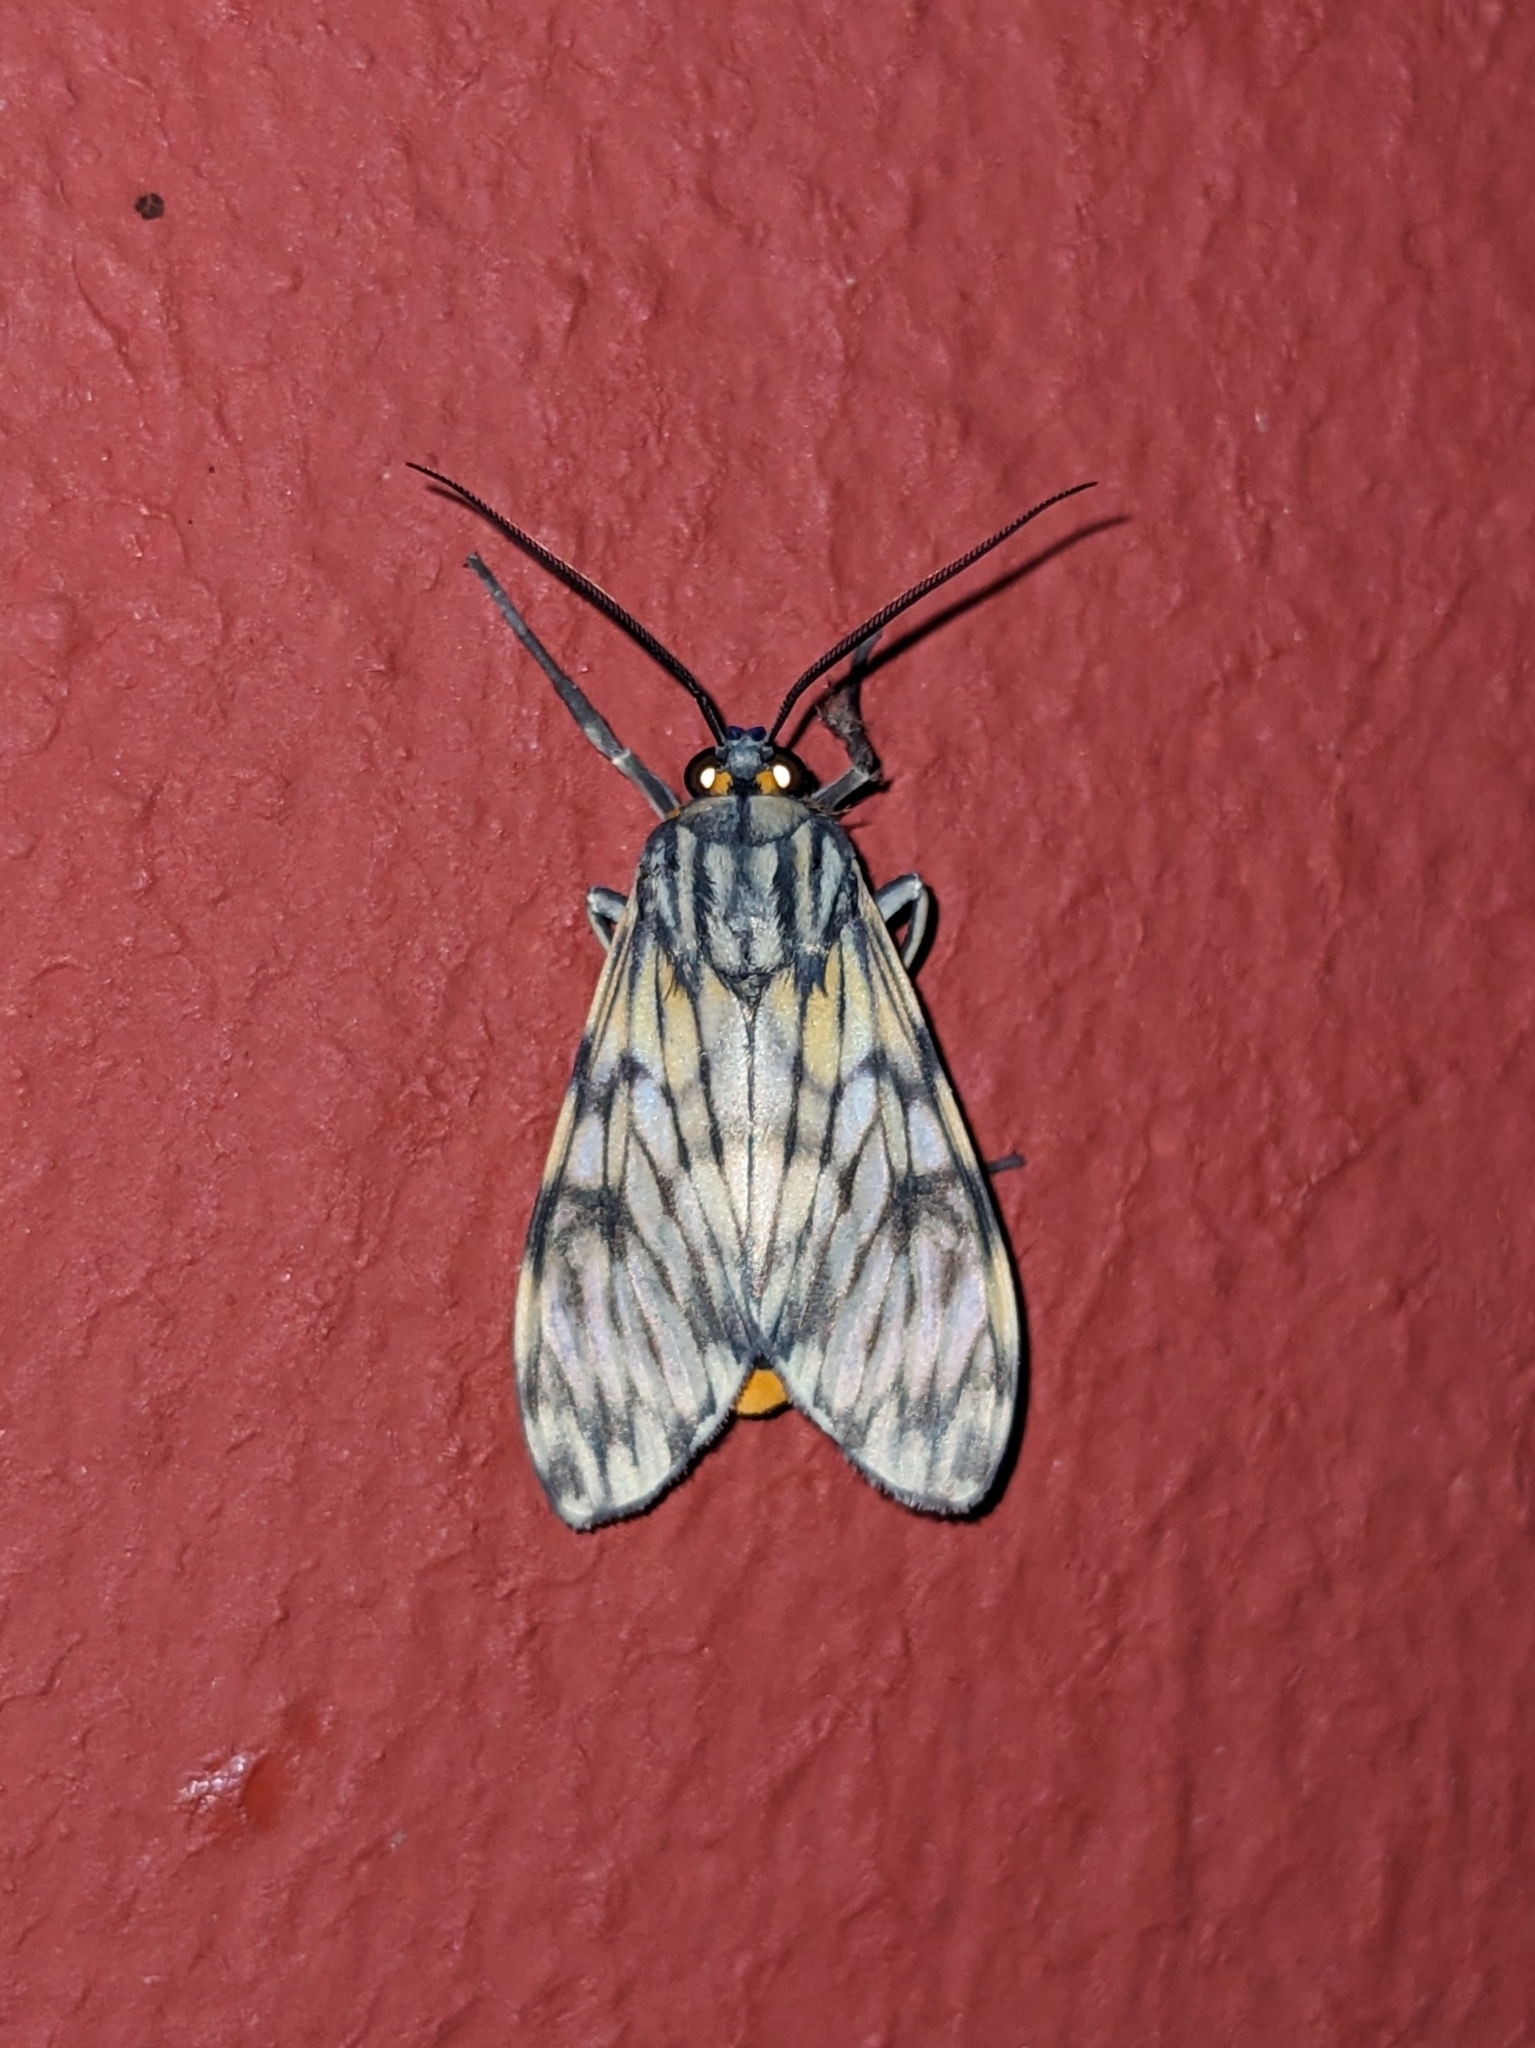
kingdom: Animalia
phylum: Arthropoda
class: Insecta
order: Lepidoptera
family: Erebidae
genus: Theages
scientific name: Theages xantura
